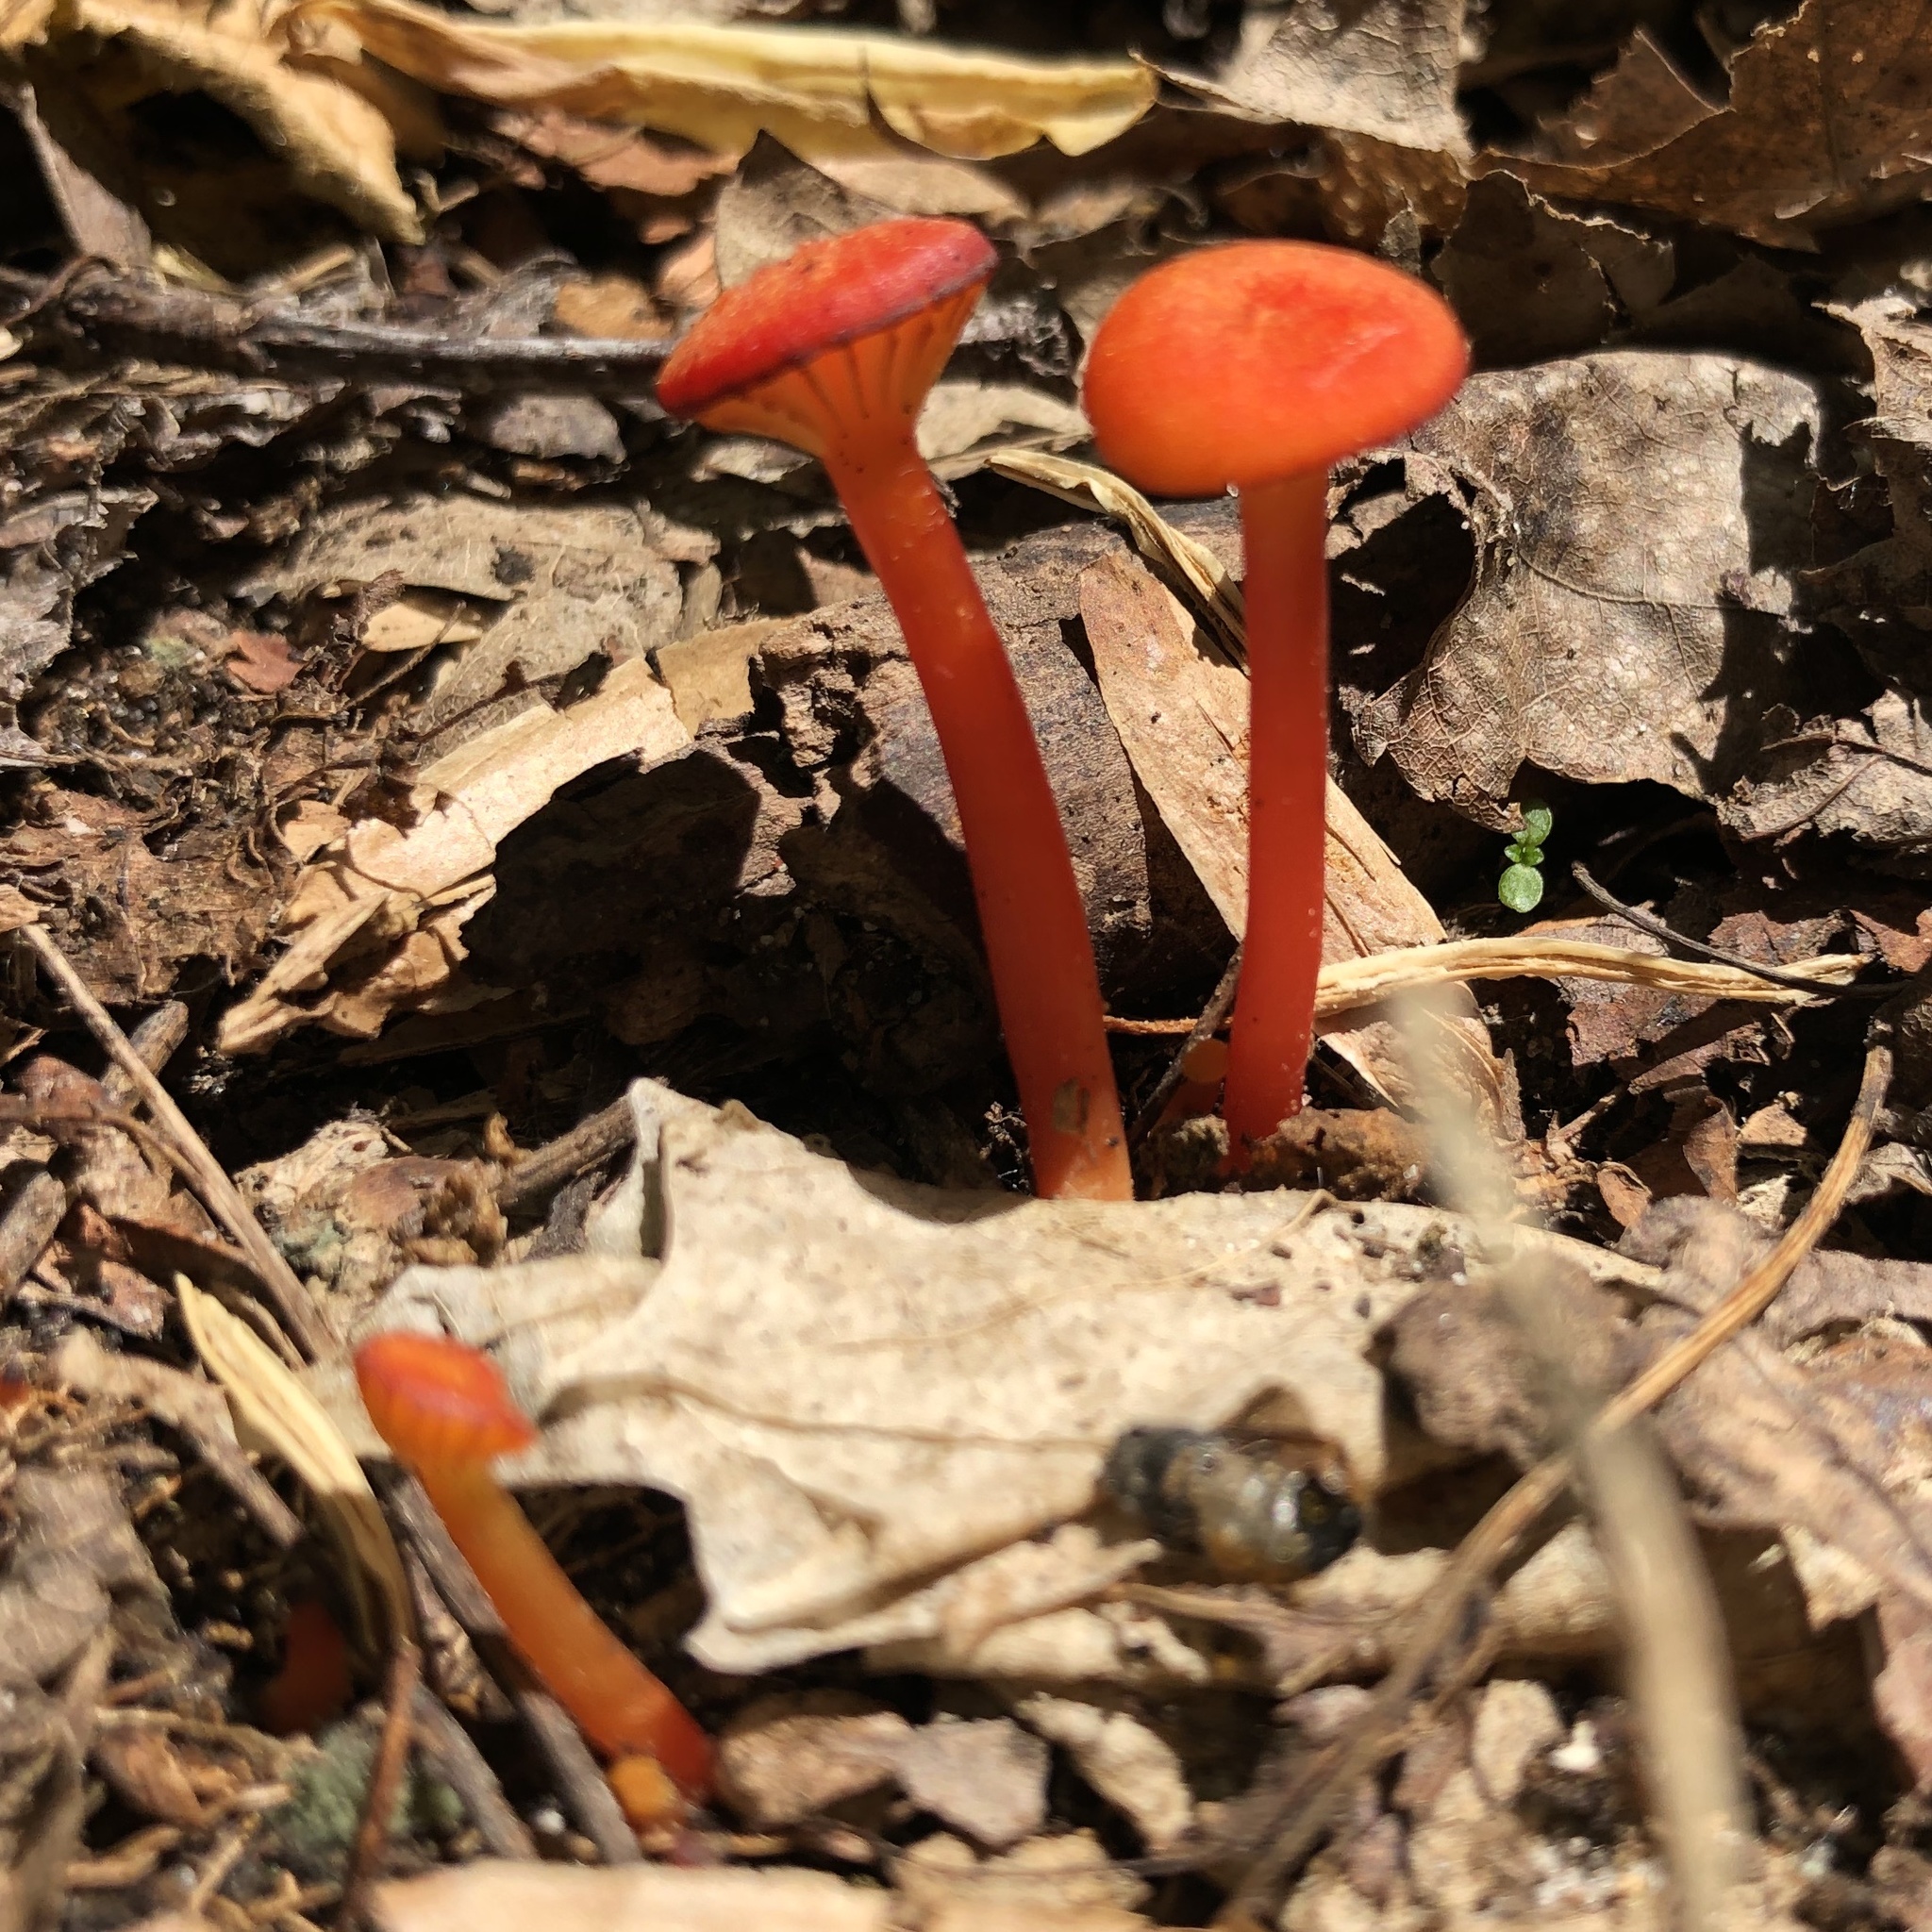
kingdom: Fungi
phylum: Basidiomycota
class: Agaricomycetes
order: Agaricales
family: Hygrophoraceae
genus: Hygrocybe
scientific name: Hygrocybe cantharellus
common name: Goblet waxcap
